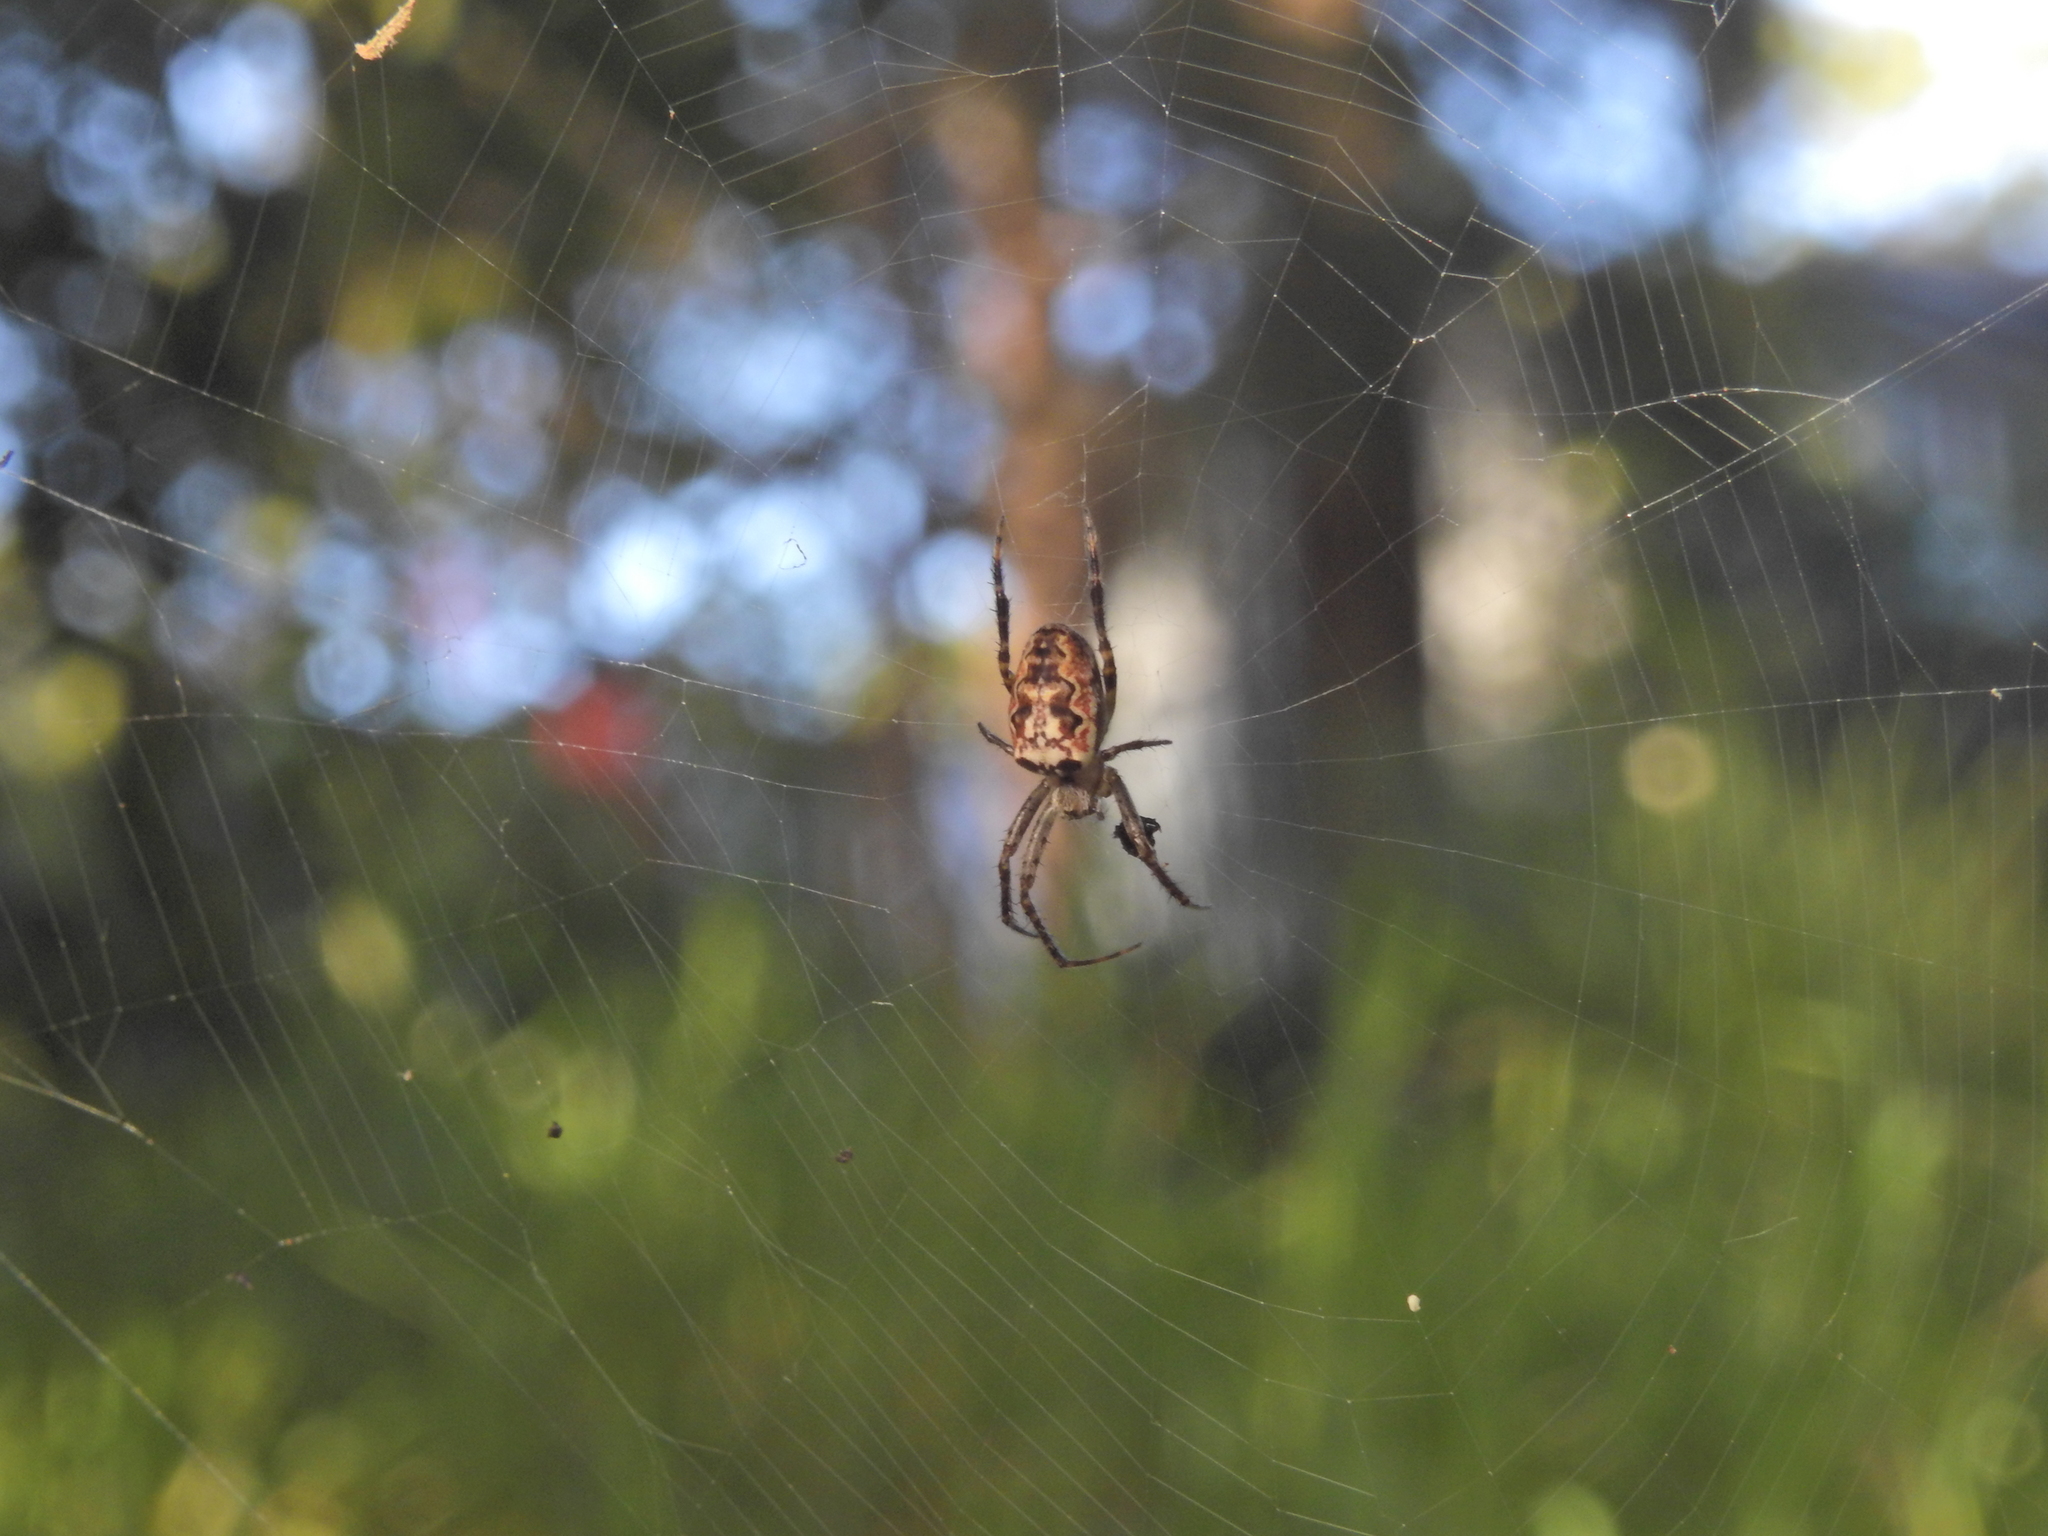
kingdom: Animalia
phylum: Arthropoda
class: Arachnida
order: Araneae
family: Araneidae
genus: Plebs
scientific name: Plebs eburnus
